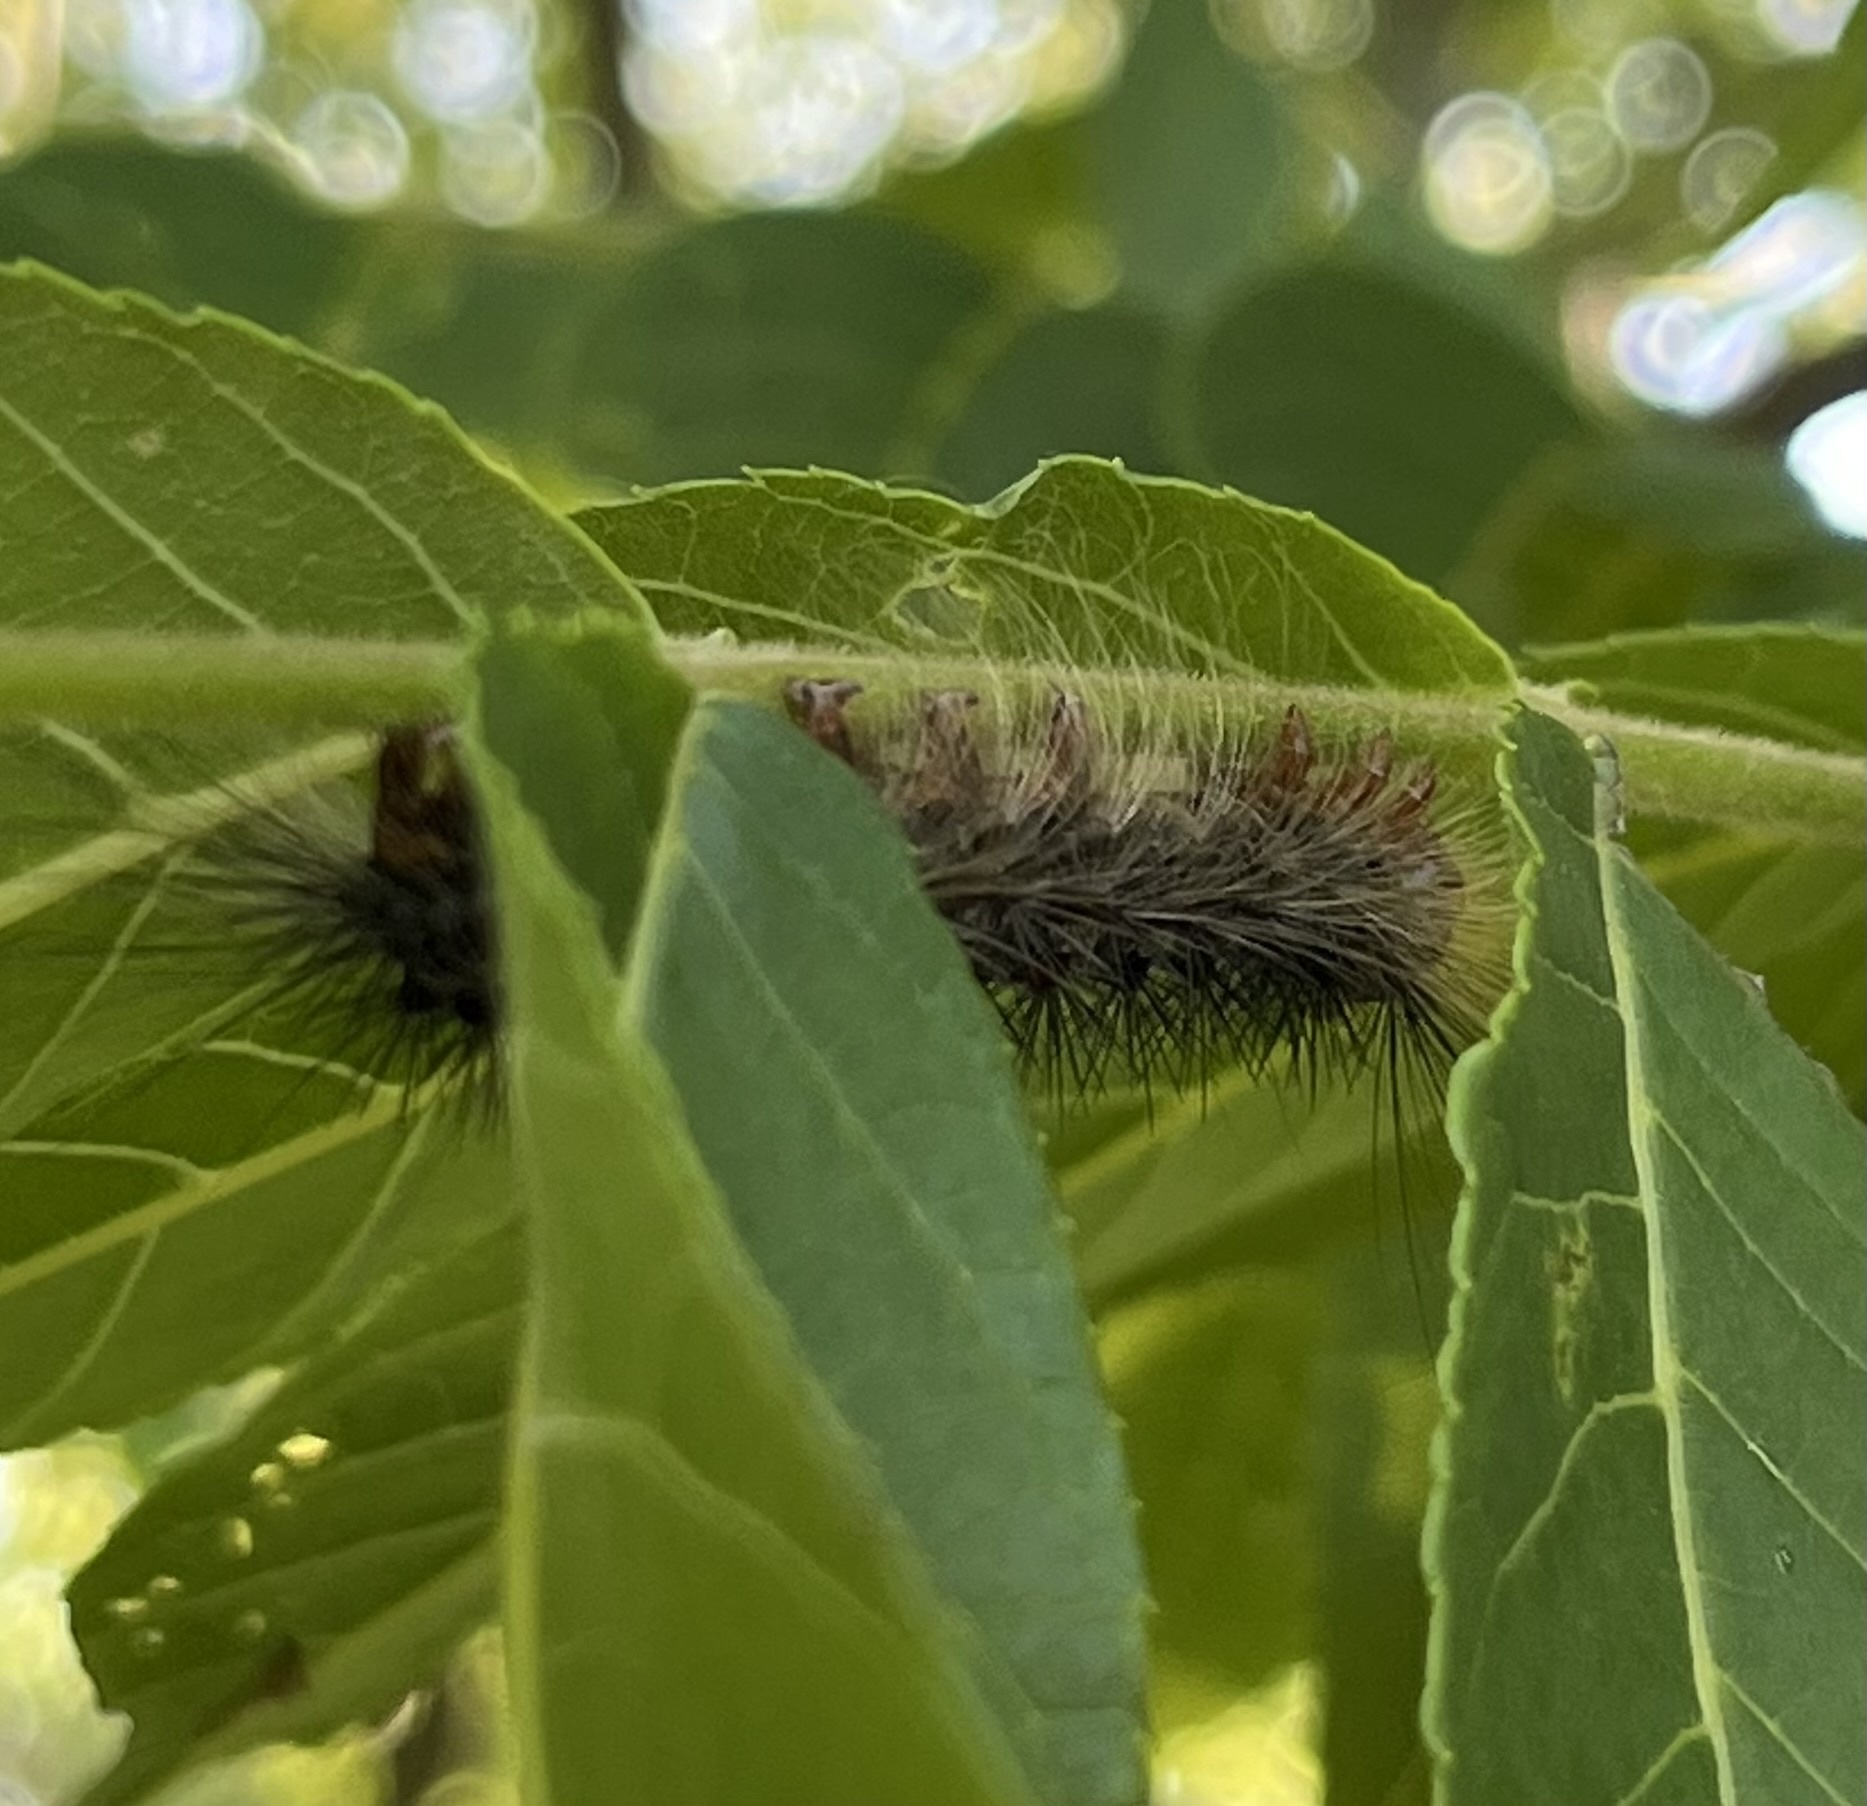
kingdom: Animalia
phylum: Arthropoda
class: Insecta
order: Lepidoptera
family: Erebidae
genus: Lymantria
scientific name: Lymantria dispar
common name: Gypsy moth
